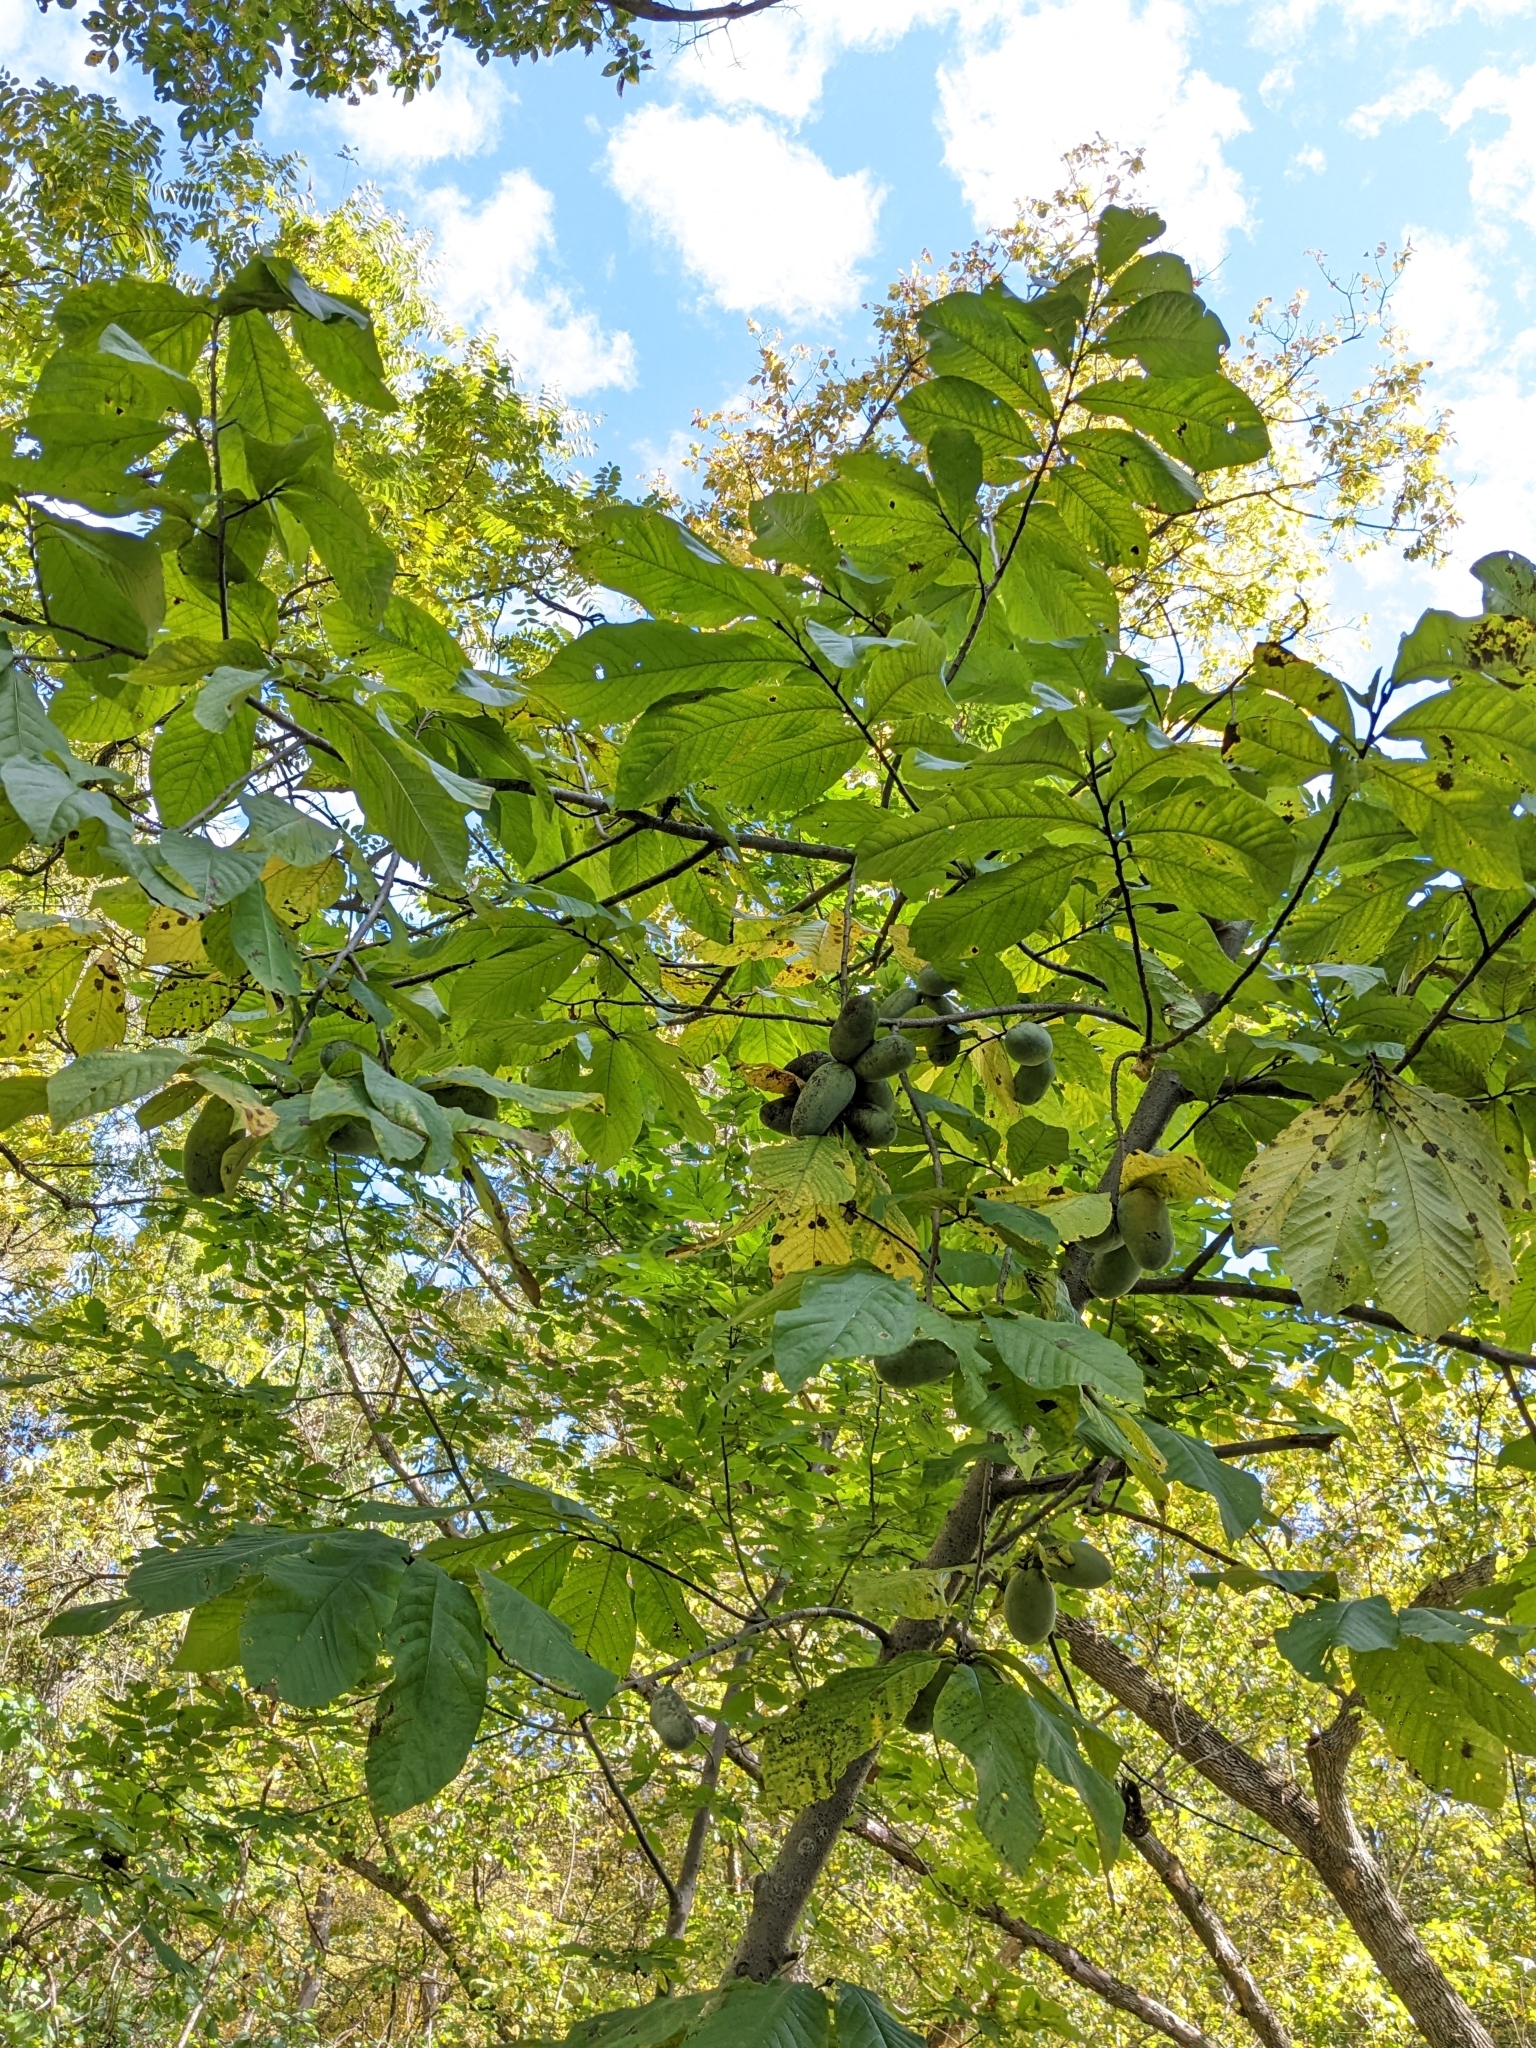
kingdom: Plantae
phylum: Tracheophyta
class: Magnoliopsida
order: Magnoliales
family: Annonaceae
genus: Asimina
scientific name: Asimina triloba
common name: Dog-banana
